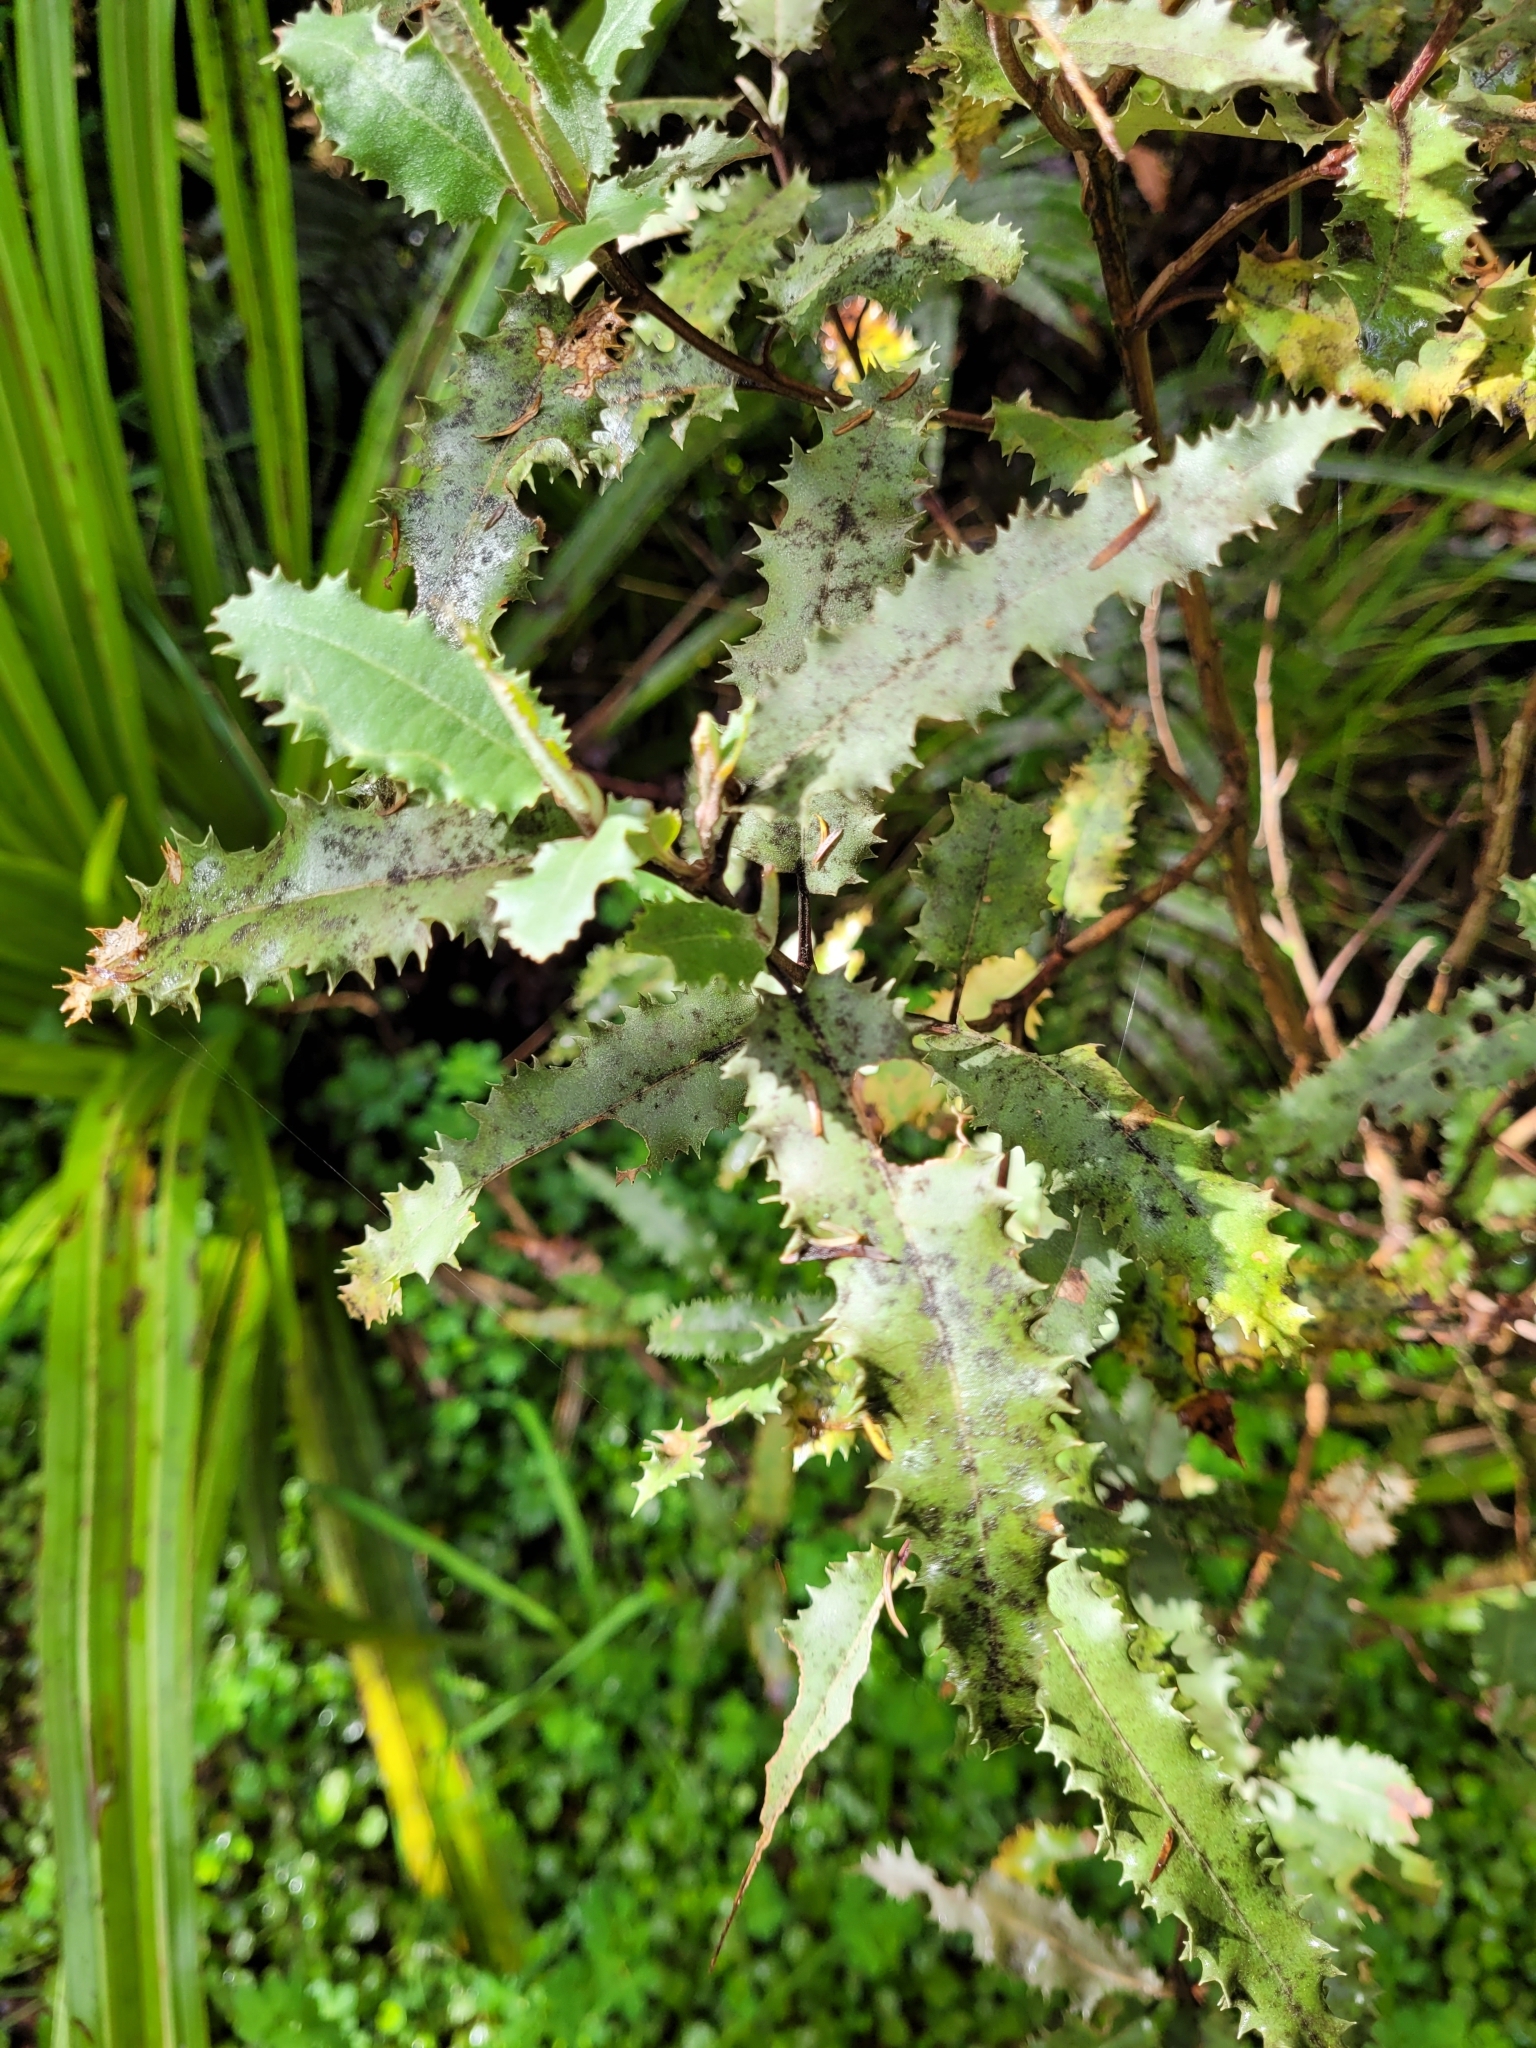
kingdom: Plantae
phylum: Tracheophyta
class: Magnoliopsida
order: Asterales
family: Asteraceae
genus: Olearia
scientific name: Olearia ilicifolia
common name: Maori-holly
